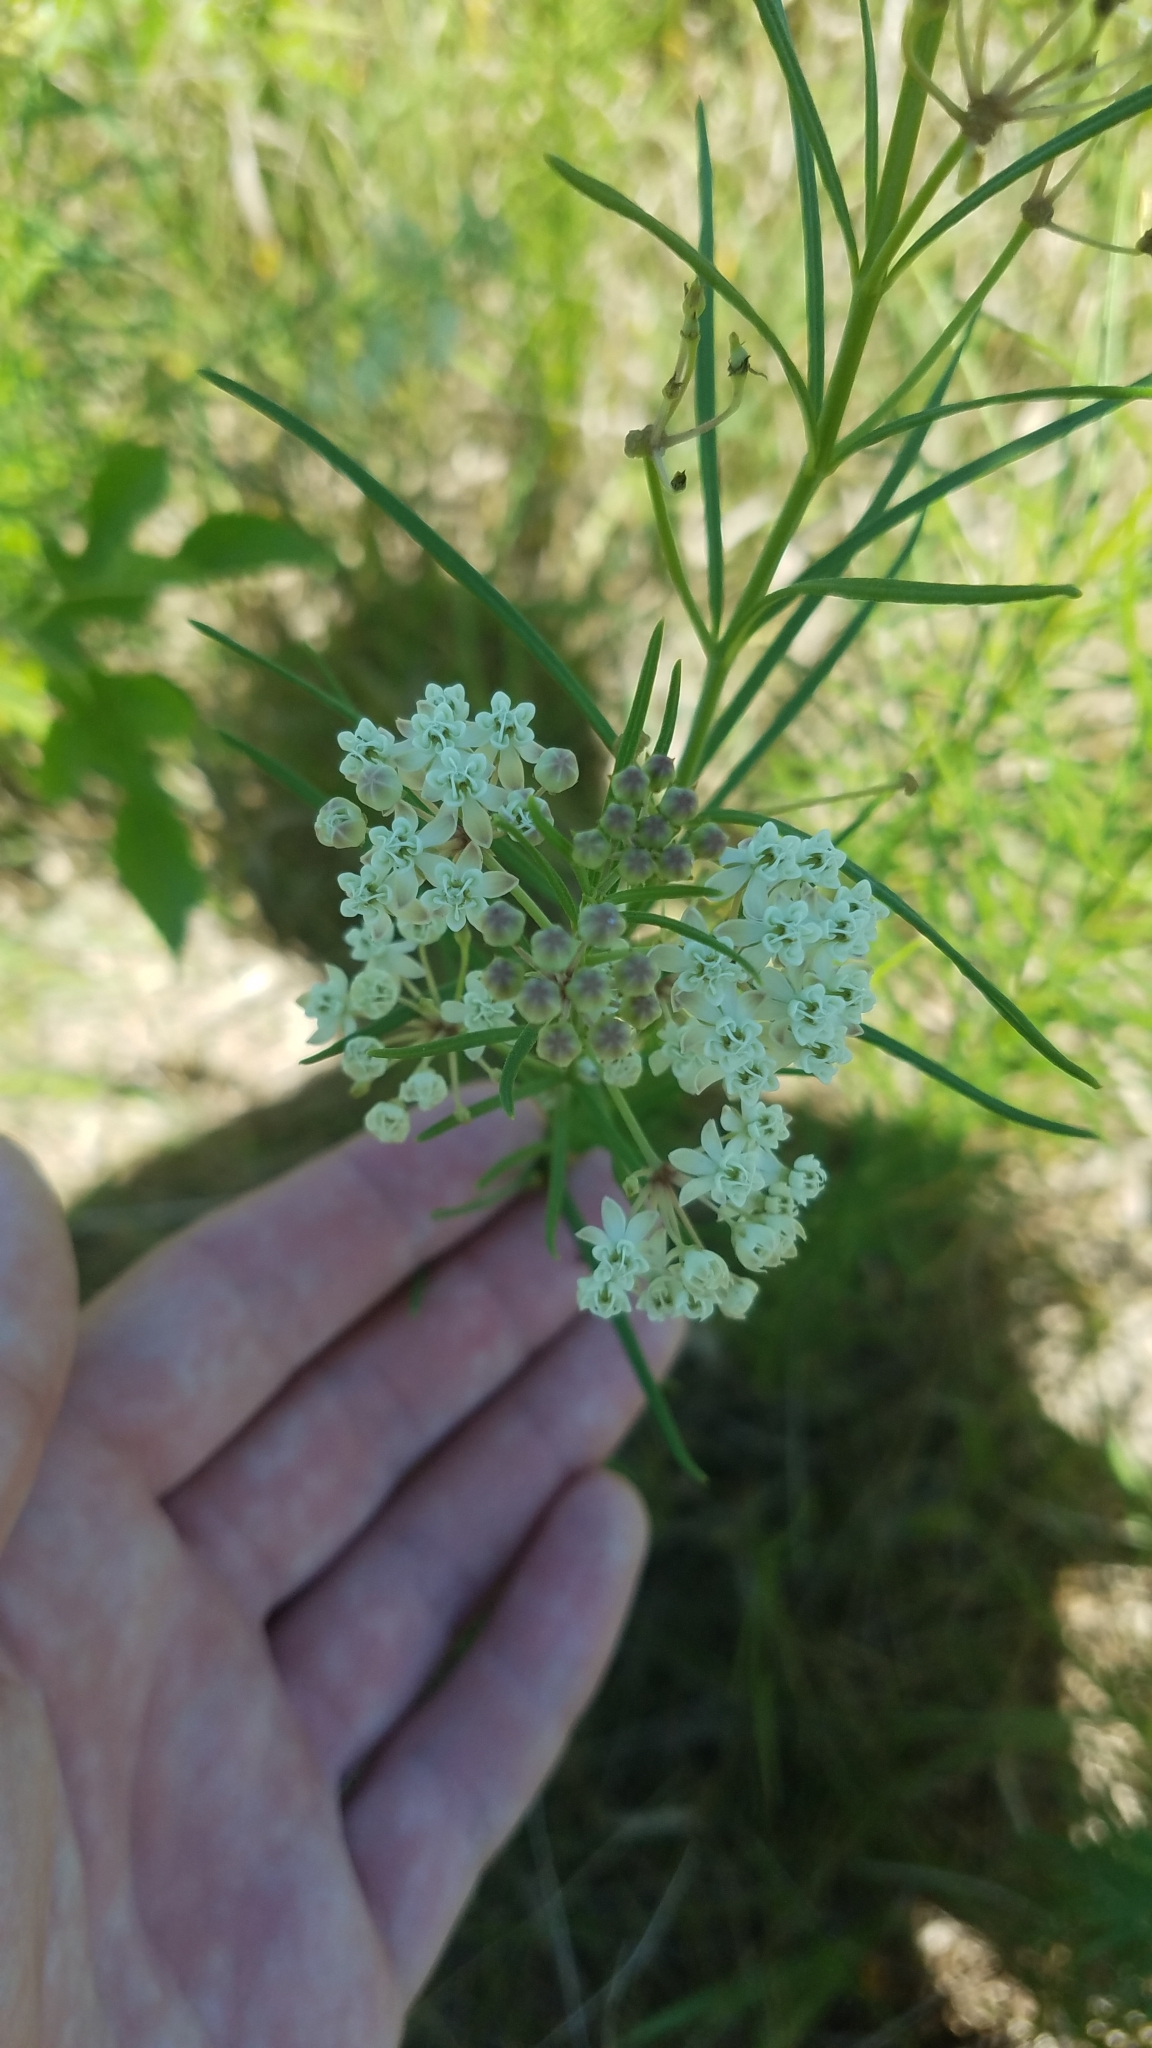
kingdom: Plantae
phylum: Tracheophyta
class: Magnoliopsida
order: Gentianales
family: Apocynaceae
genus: Asclepias
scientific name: Asclepias verticillata
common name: Eastern whorled milkweed
